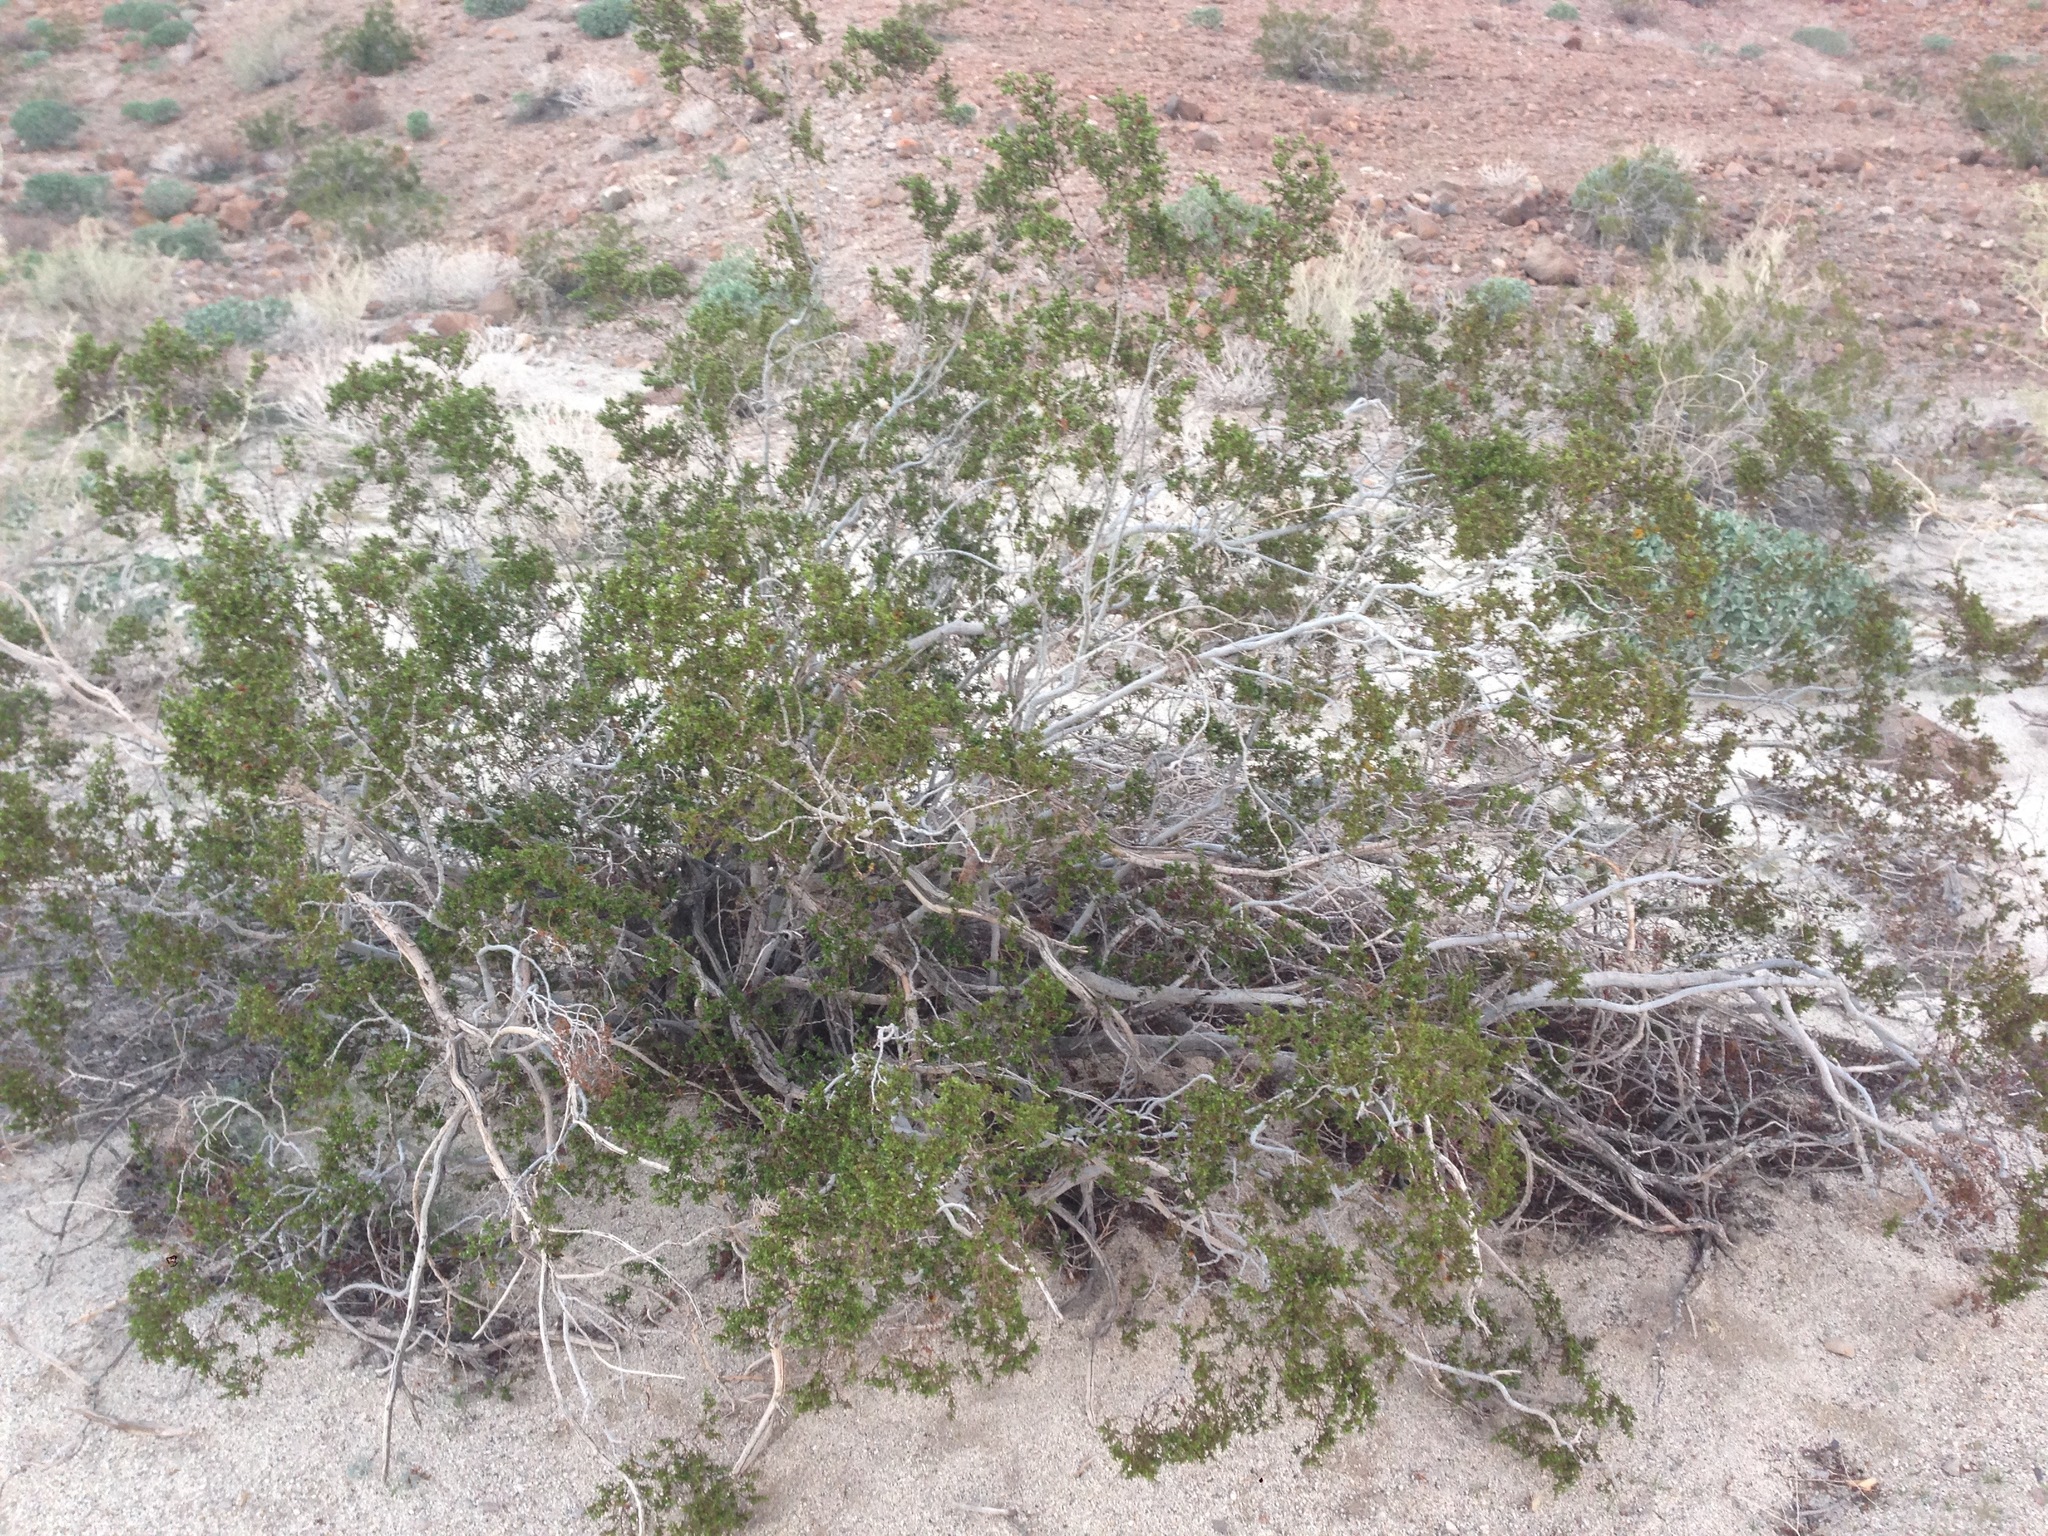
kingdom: Plantae
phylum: Tracheophyta
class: Magnoliopsida
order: Zygophyllales
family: Zygophyllaceae
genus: Larrea
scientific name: Larrea tridentata
